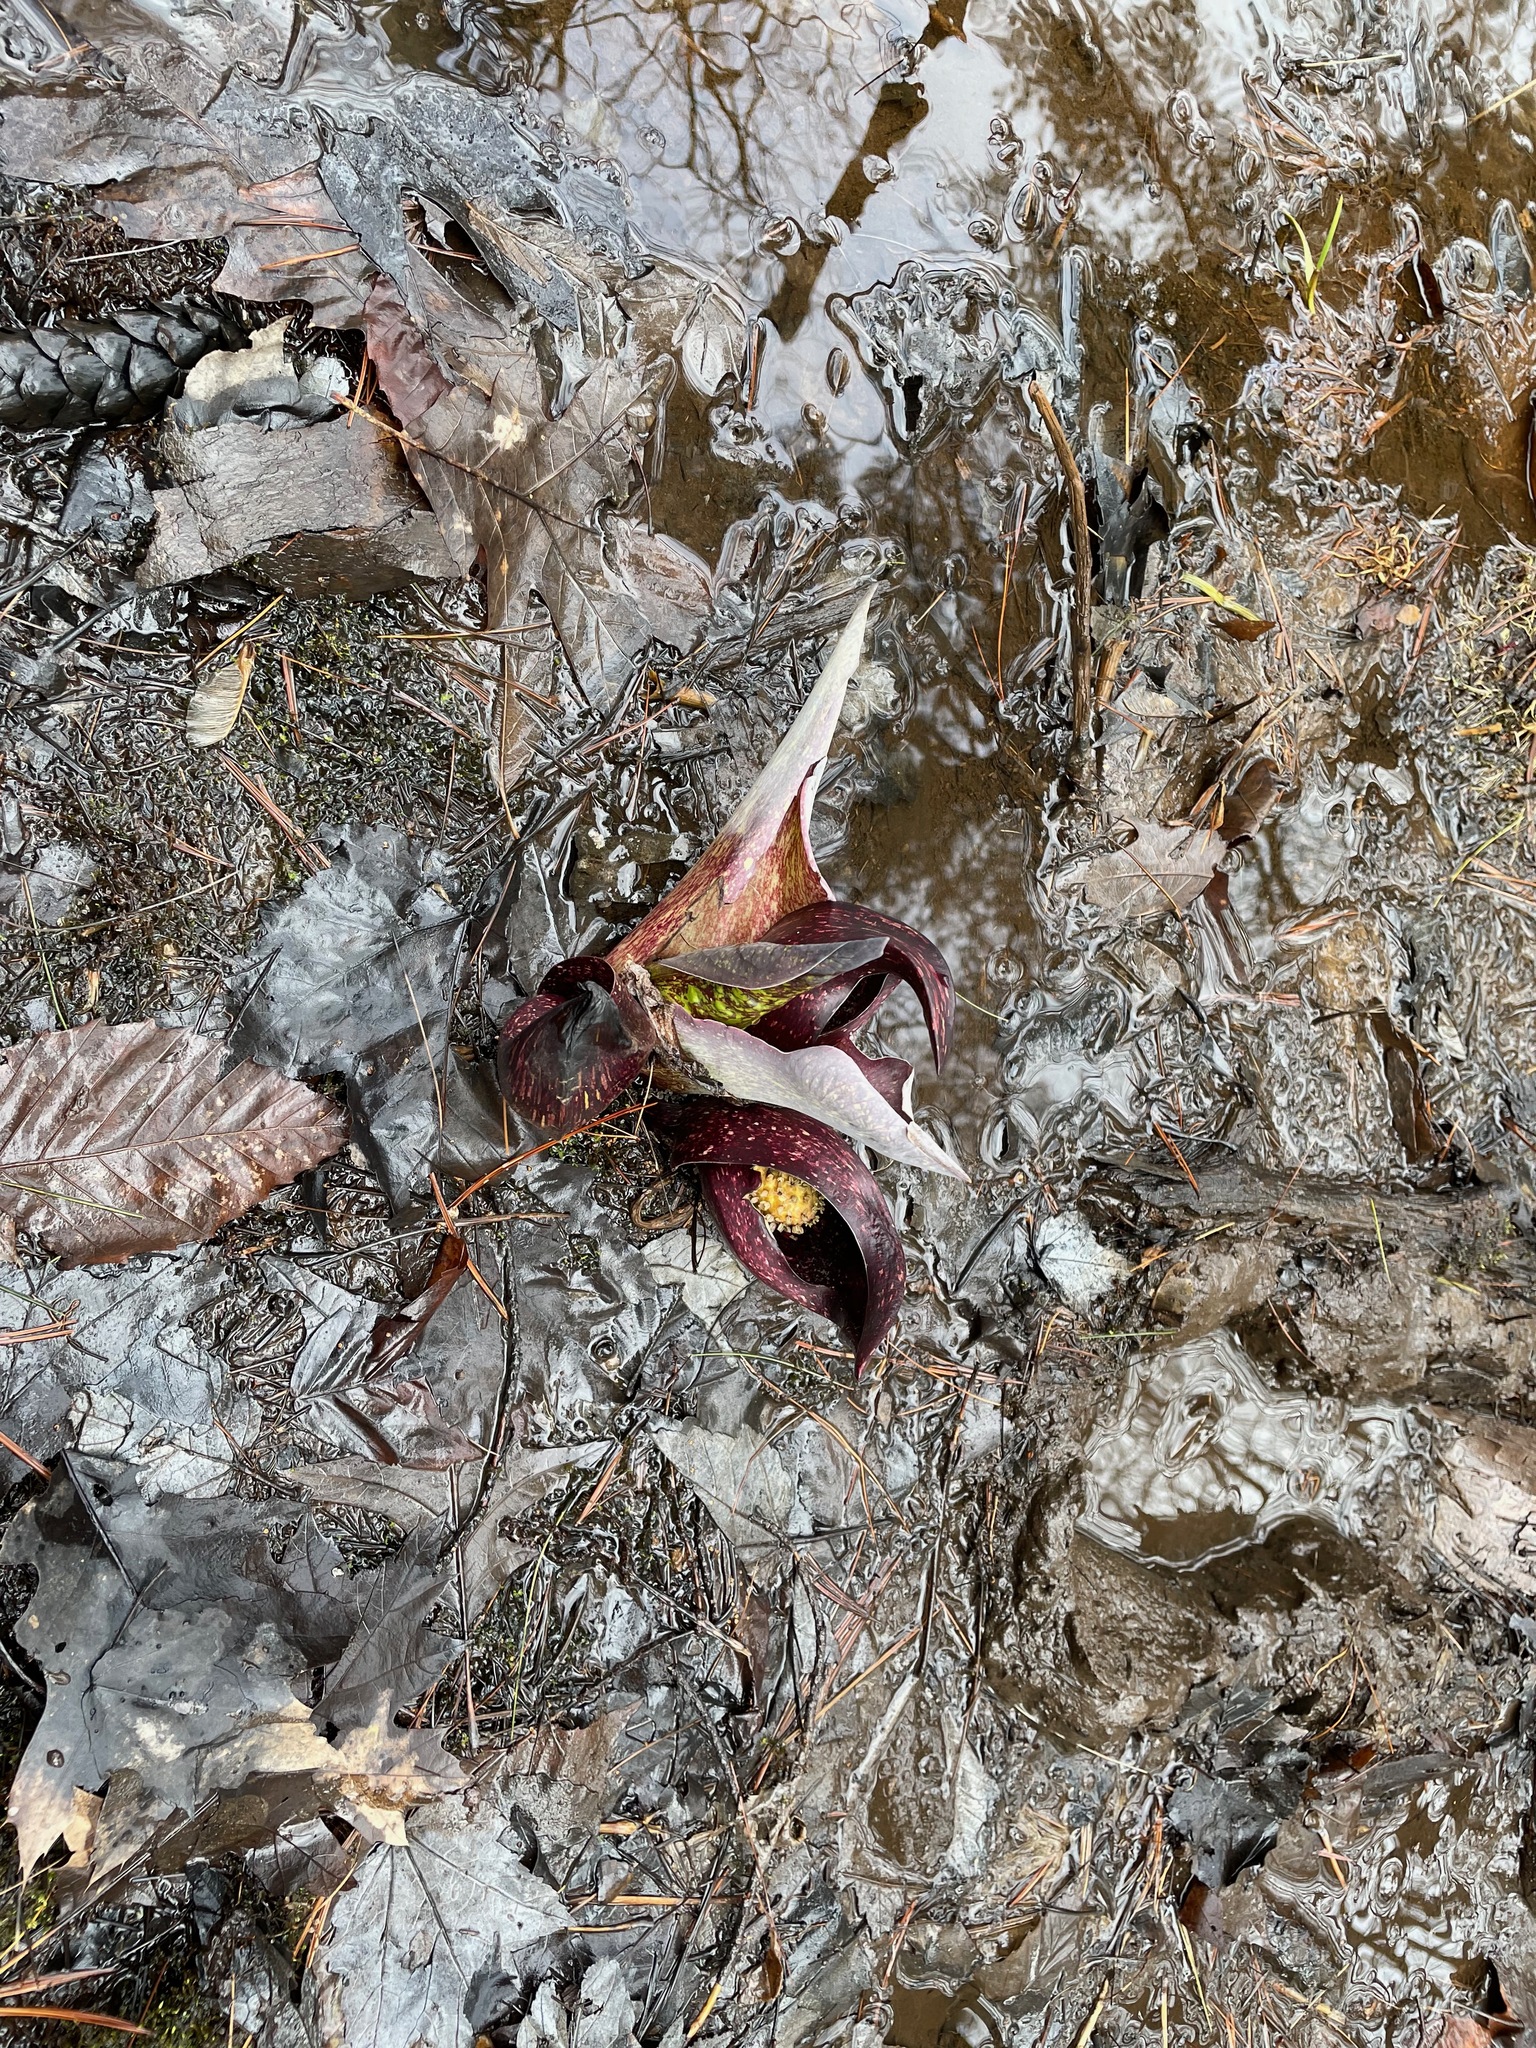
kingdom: Plantae
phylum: Tracheophyta
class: Liliopsida
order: Alismatales
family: Araceae
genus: Symplocarpus
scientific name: Symplocarpus foetidus
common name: Eastern skunk cabbage
